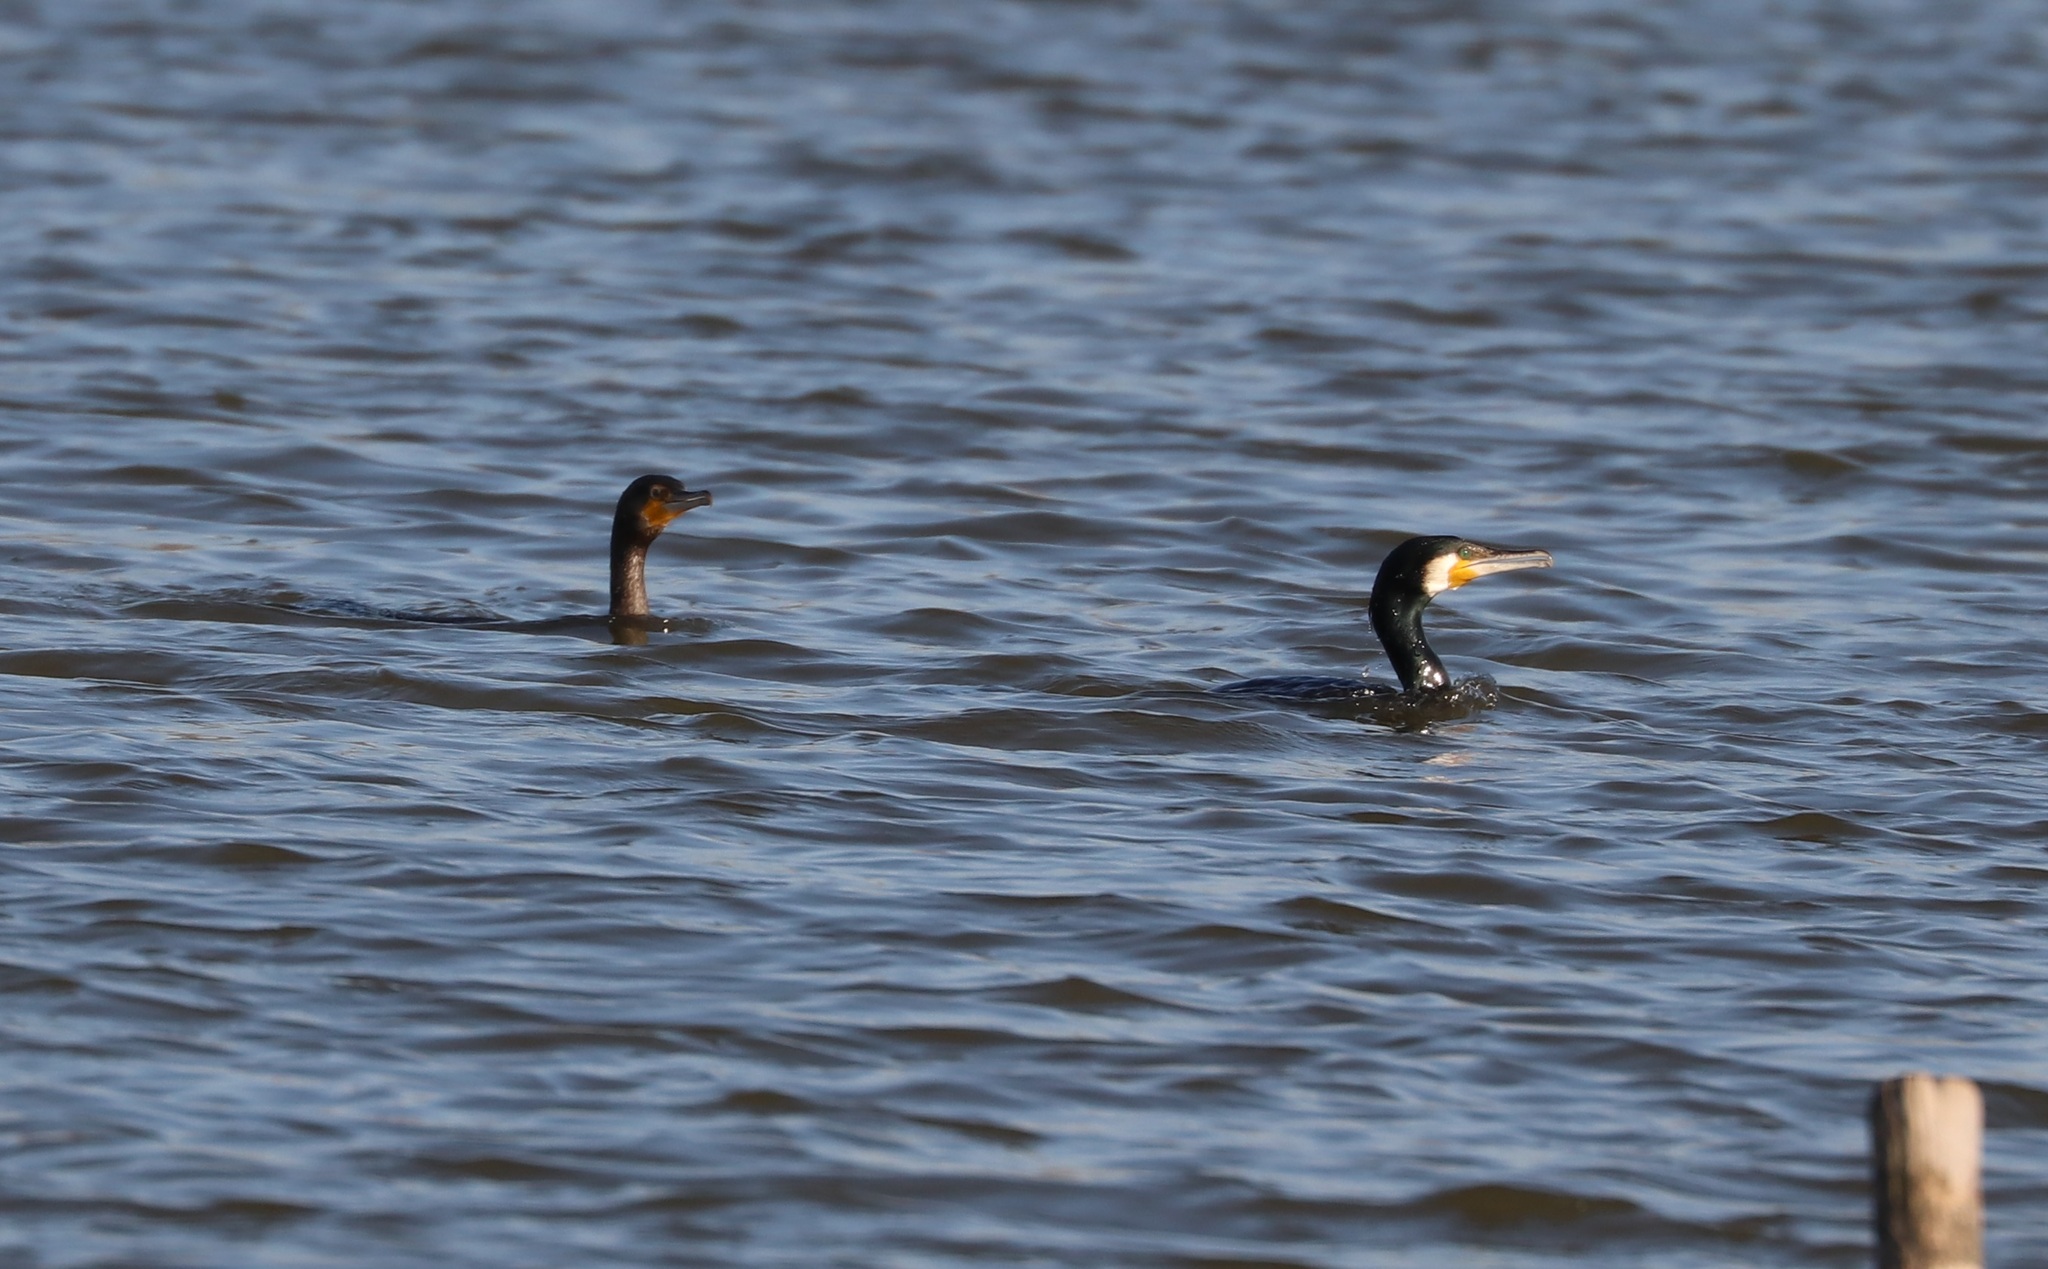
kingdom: Animalia
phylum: Chordata
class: Aves
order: Suliformes
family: Phalacrocoracidae
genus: Phalacrocorax
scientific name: Phalacrocorax carbo
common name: Great cormorant
